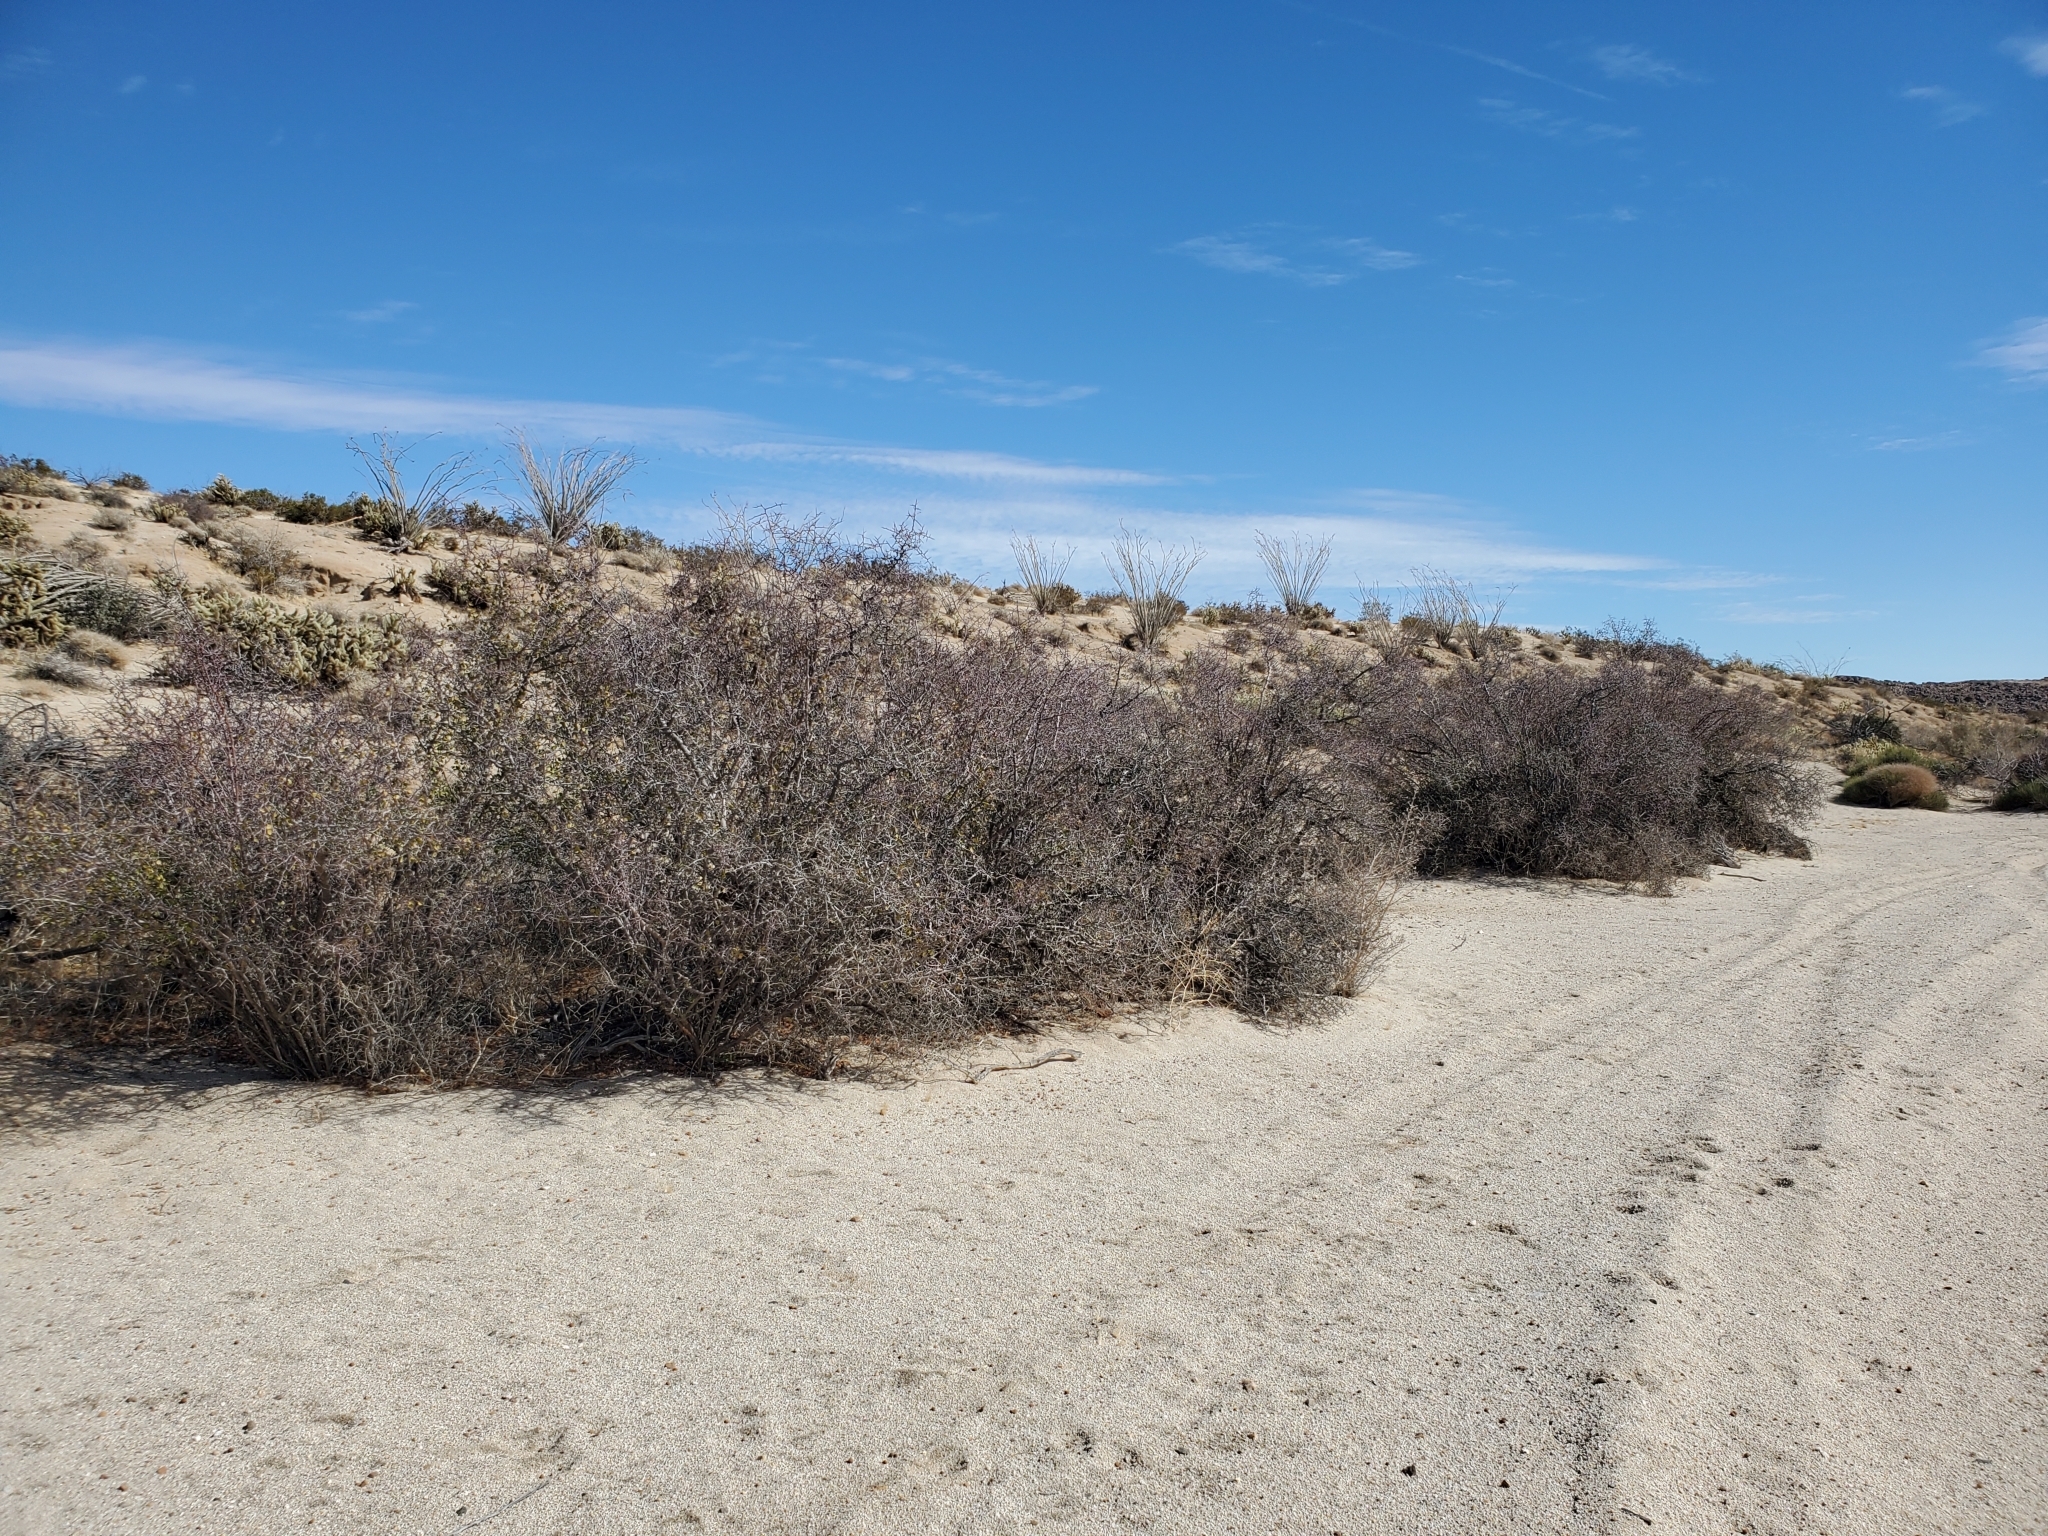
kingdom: Plantae
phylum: Tracheophyta
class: Magnoliopsida
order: Rosales
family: Rosaceae
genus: Prunus
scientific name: Prunus fremontii
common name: Desert apricot
